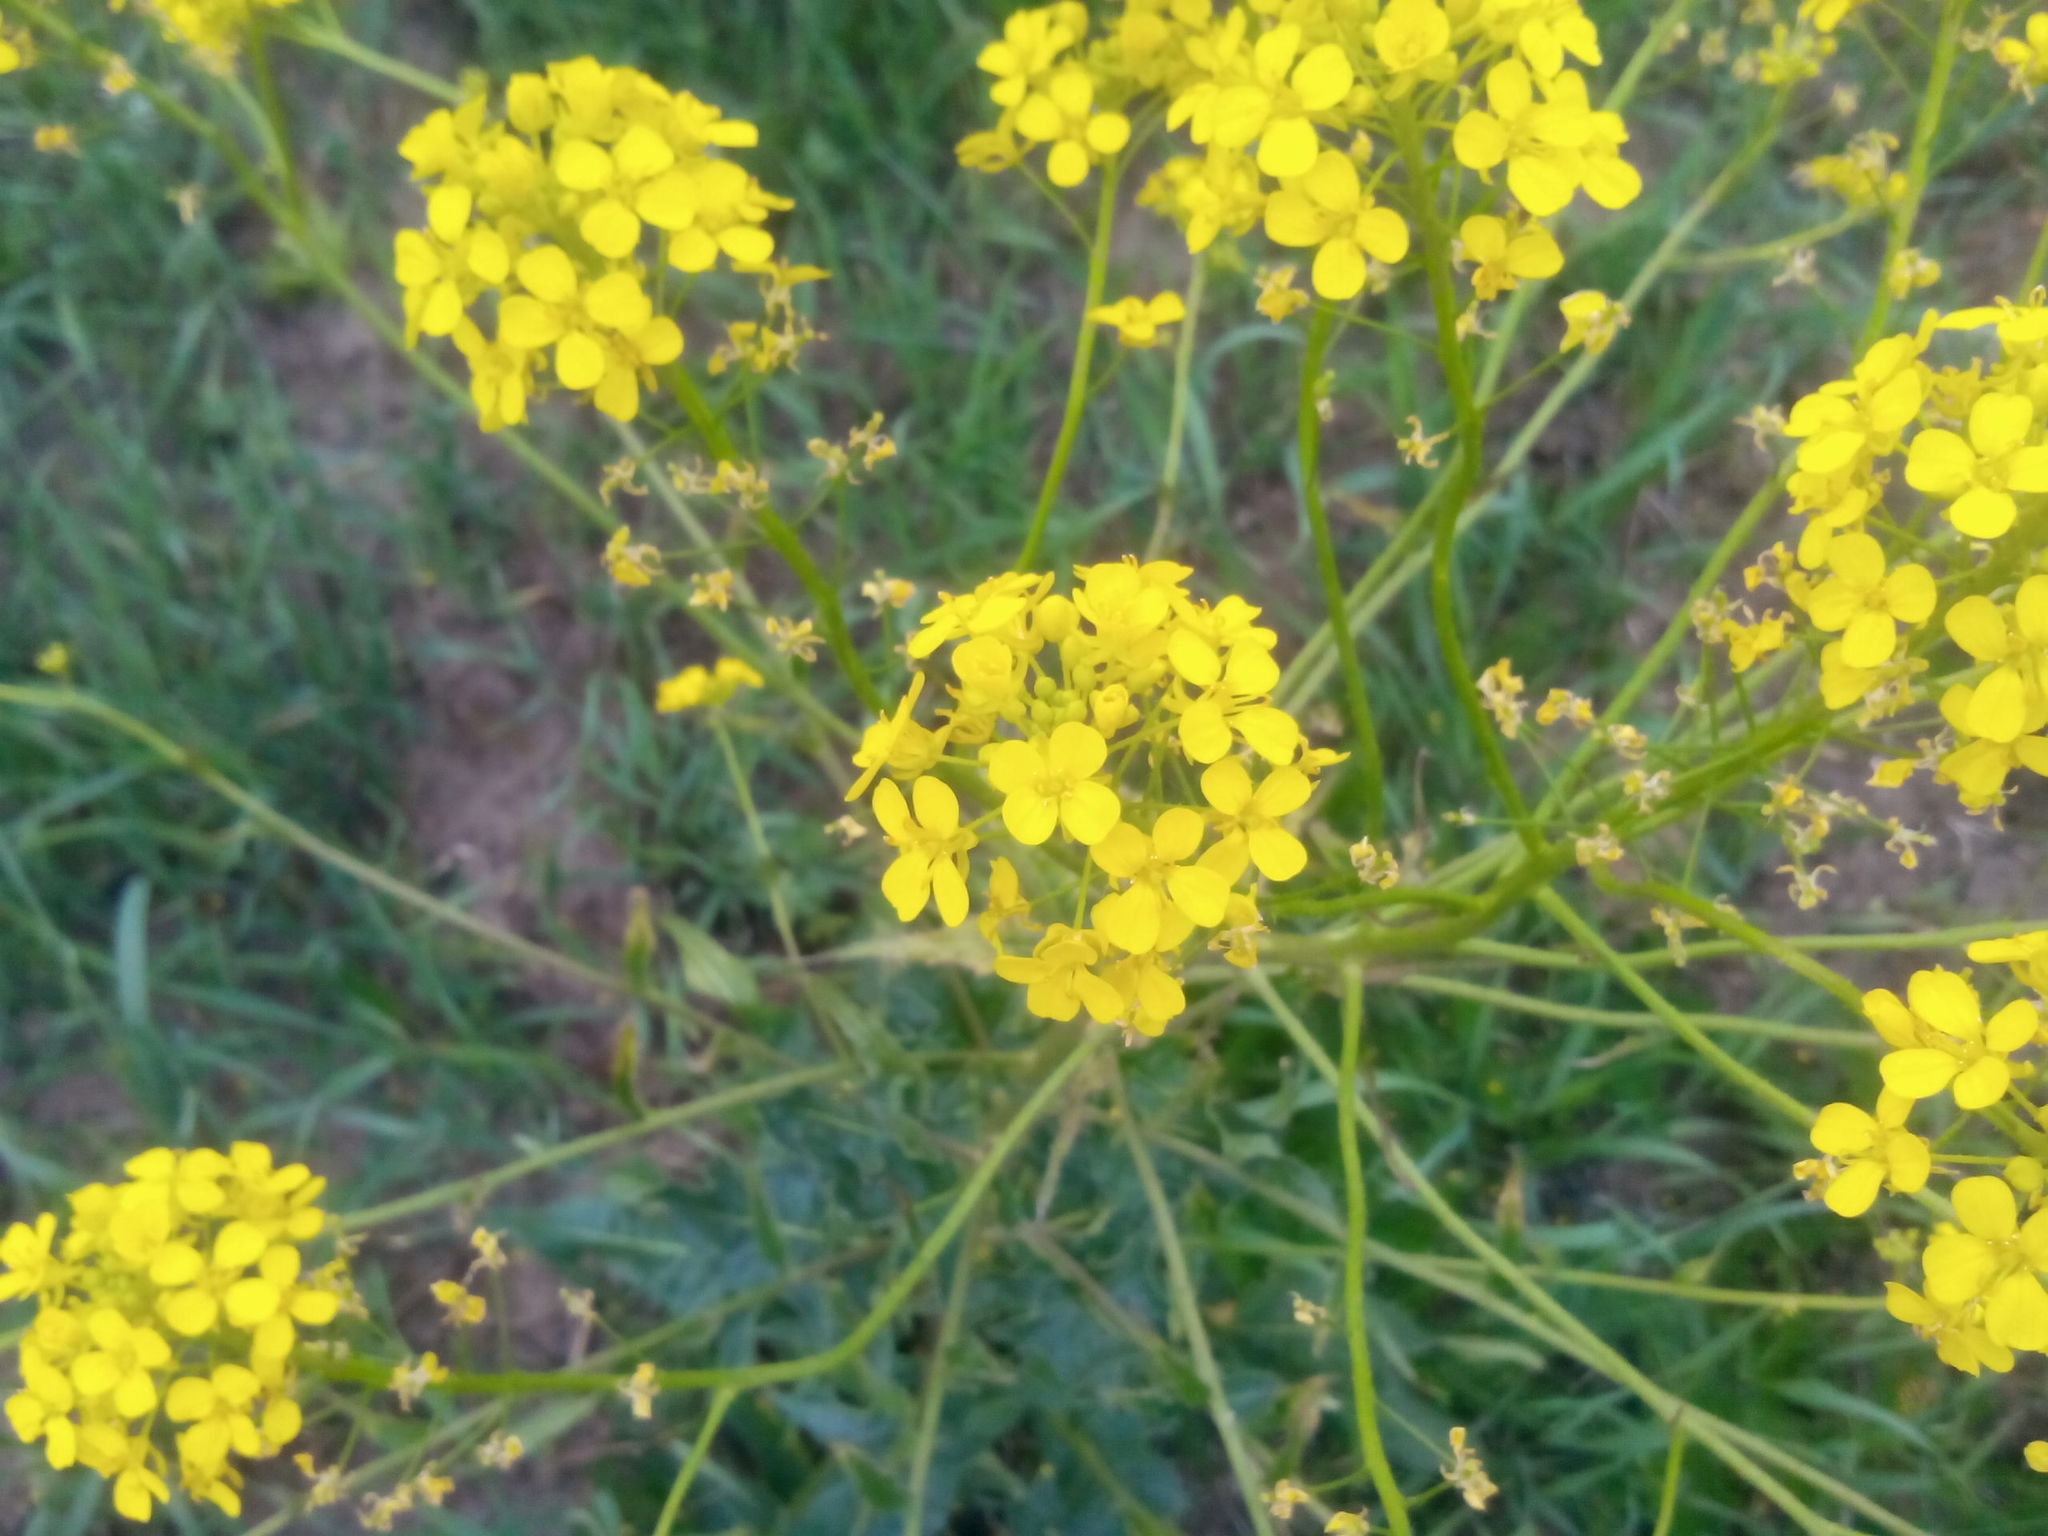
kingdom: Plantae
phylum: Tracheophyta
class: Magnoliopsida
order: Brassicales
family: Brassicaceae
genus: Bunias
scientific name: Bunias orientalis
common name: Warty-cabbage
